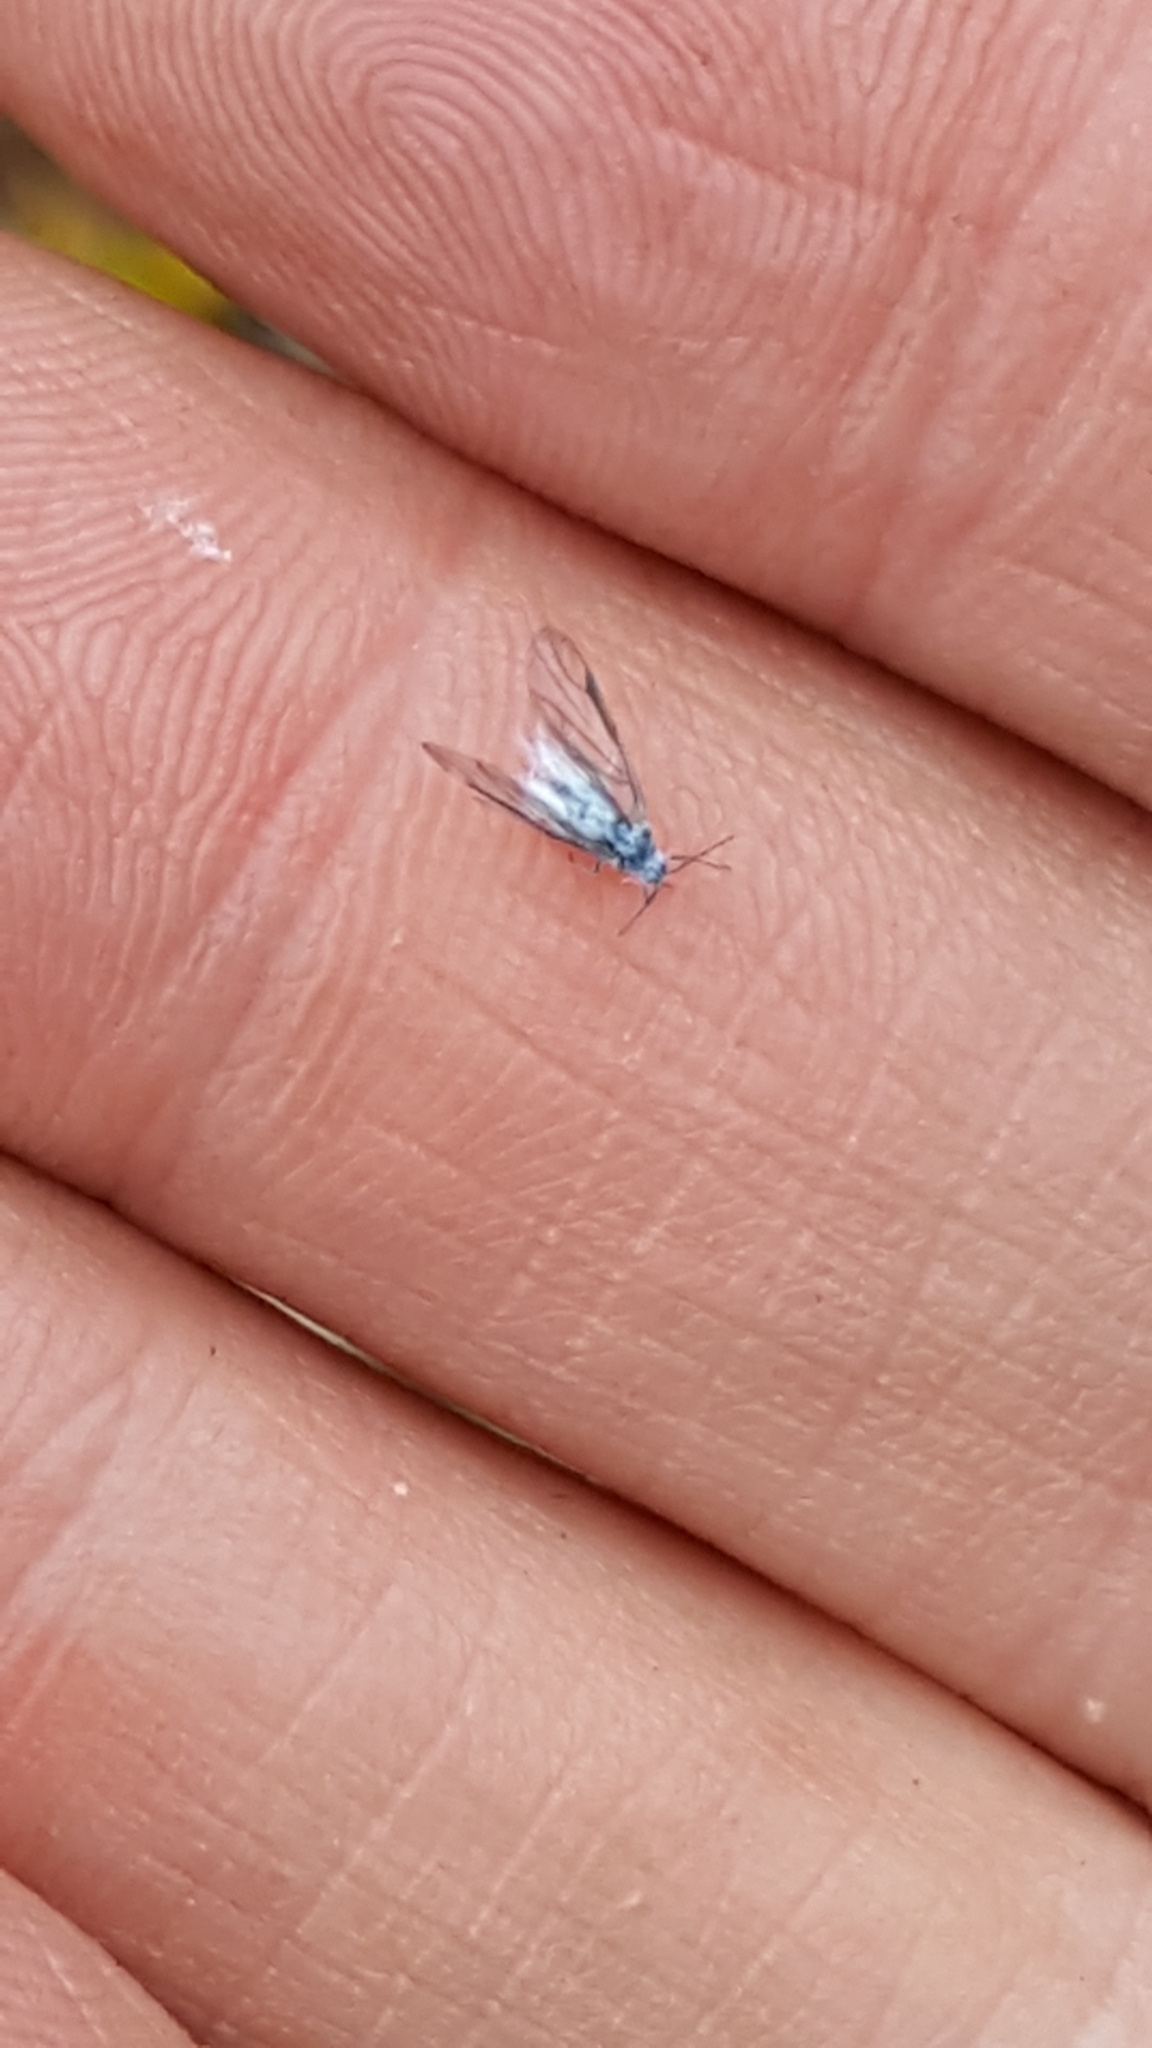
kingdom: Animalia
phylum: Arthropoda
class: Insecta
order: Hemiptera
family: Eriosomatidae
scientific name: Eriosomatidae
